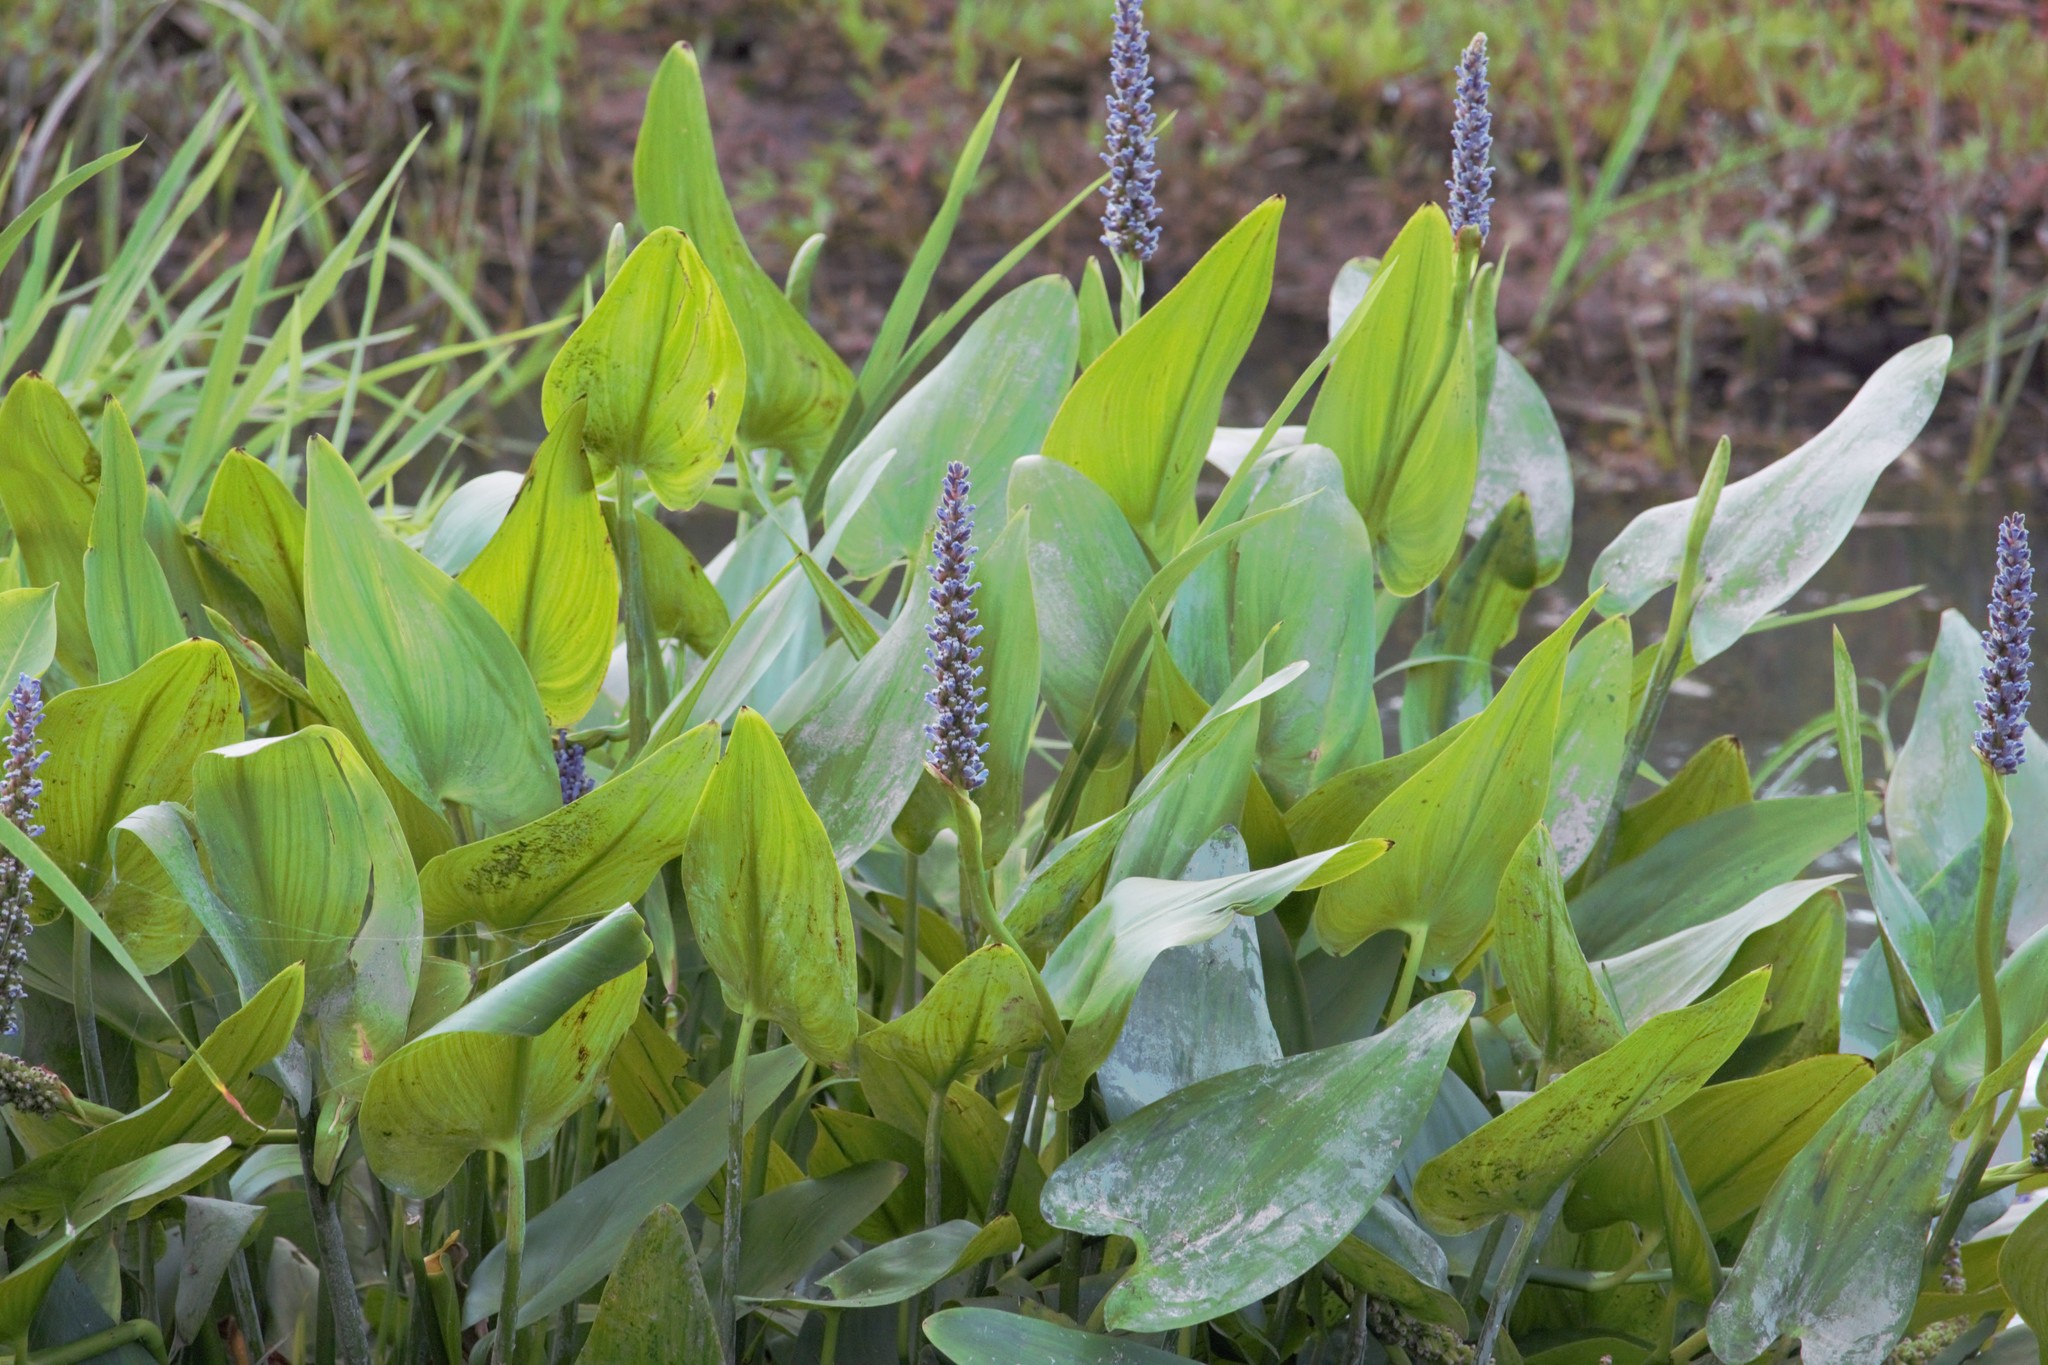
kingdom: Plantae
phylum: Tracheophyta
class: Liliopsida
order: Commelinales
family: Pontederiaceae
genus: Pontederia
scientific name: Pontederia cordata
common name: Pickerelweed
